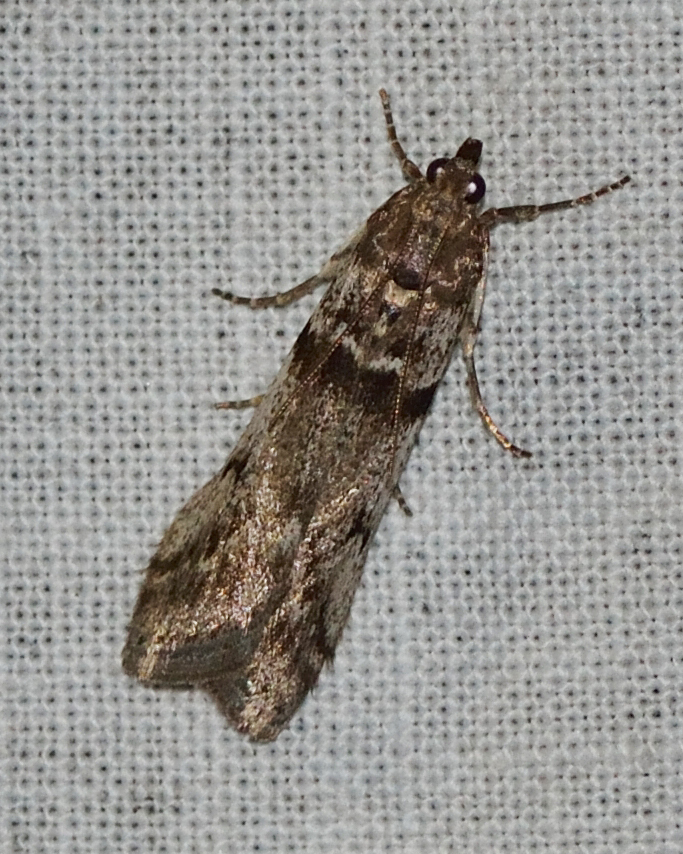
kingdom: Animalia
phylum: Arthropoda
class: Insecta
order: Lepidoptera
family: Pyralidae
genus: Zophodia
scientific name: Zophodia convolutella
